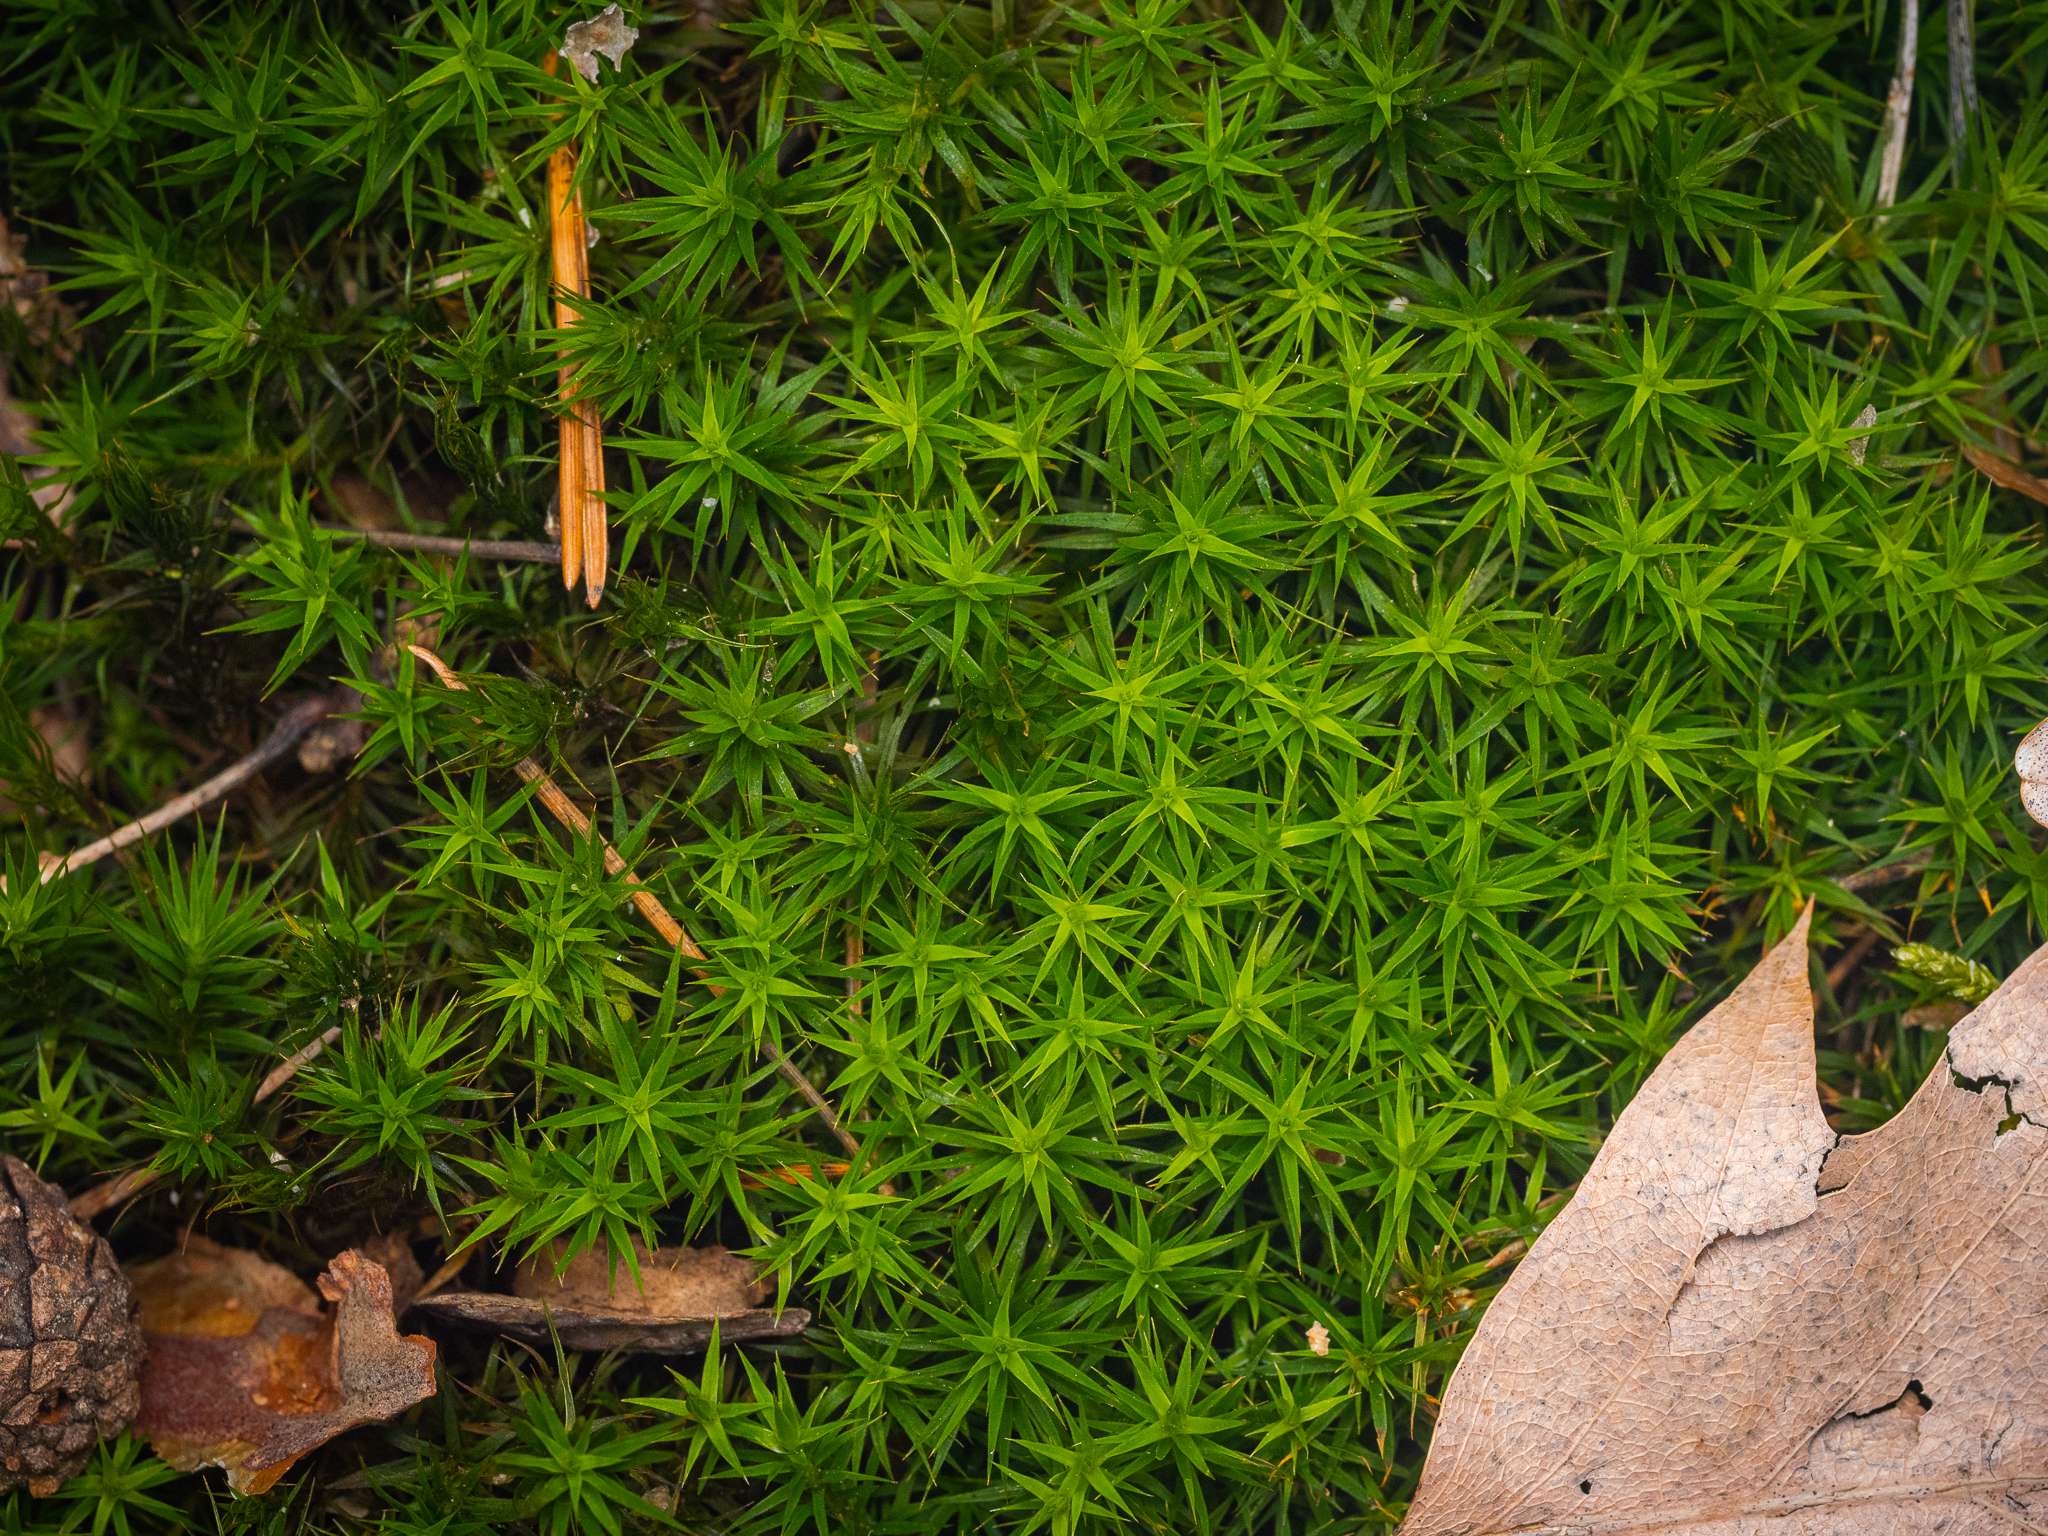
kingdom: Plantae
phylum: Bryophyta
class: Polytrichopsida
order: Polytrichales
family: Polytrichaceae
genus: Polytrichum
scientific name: Polytrichum formosum
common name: Bank haircap moss
